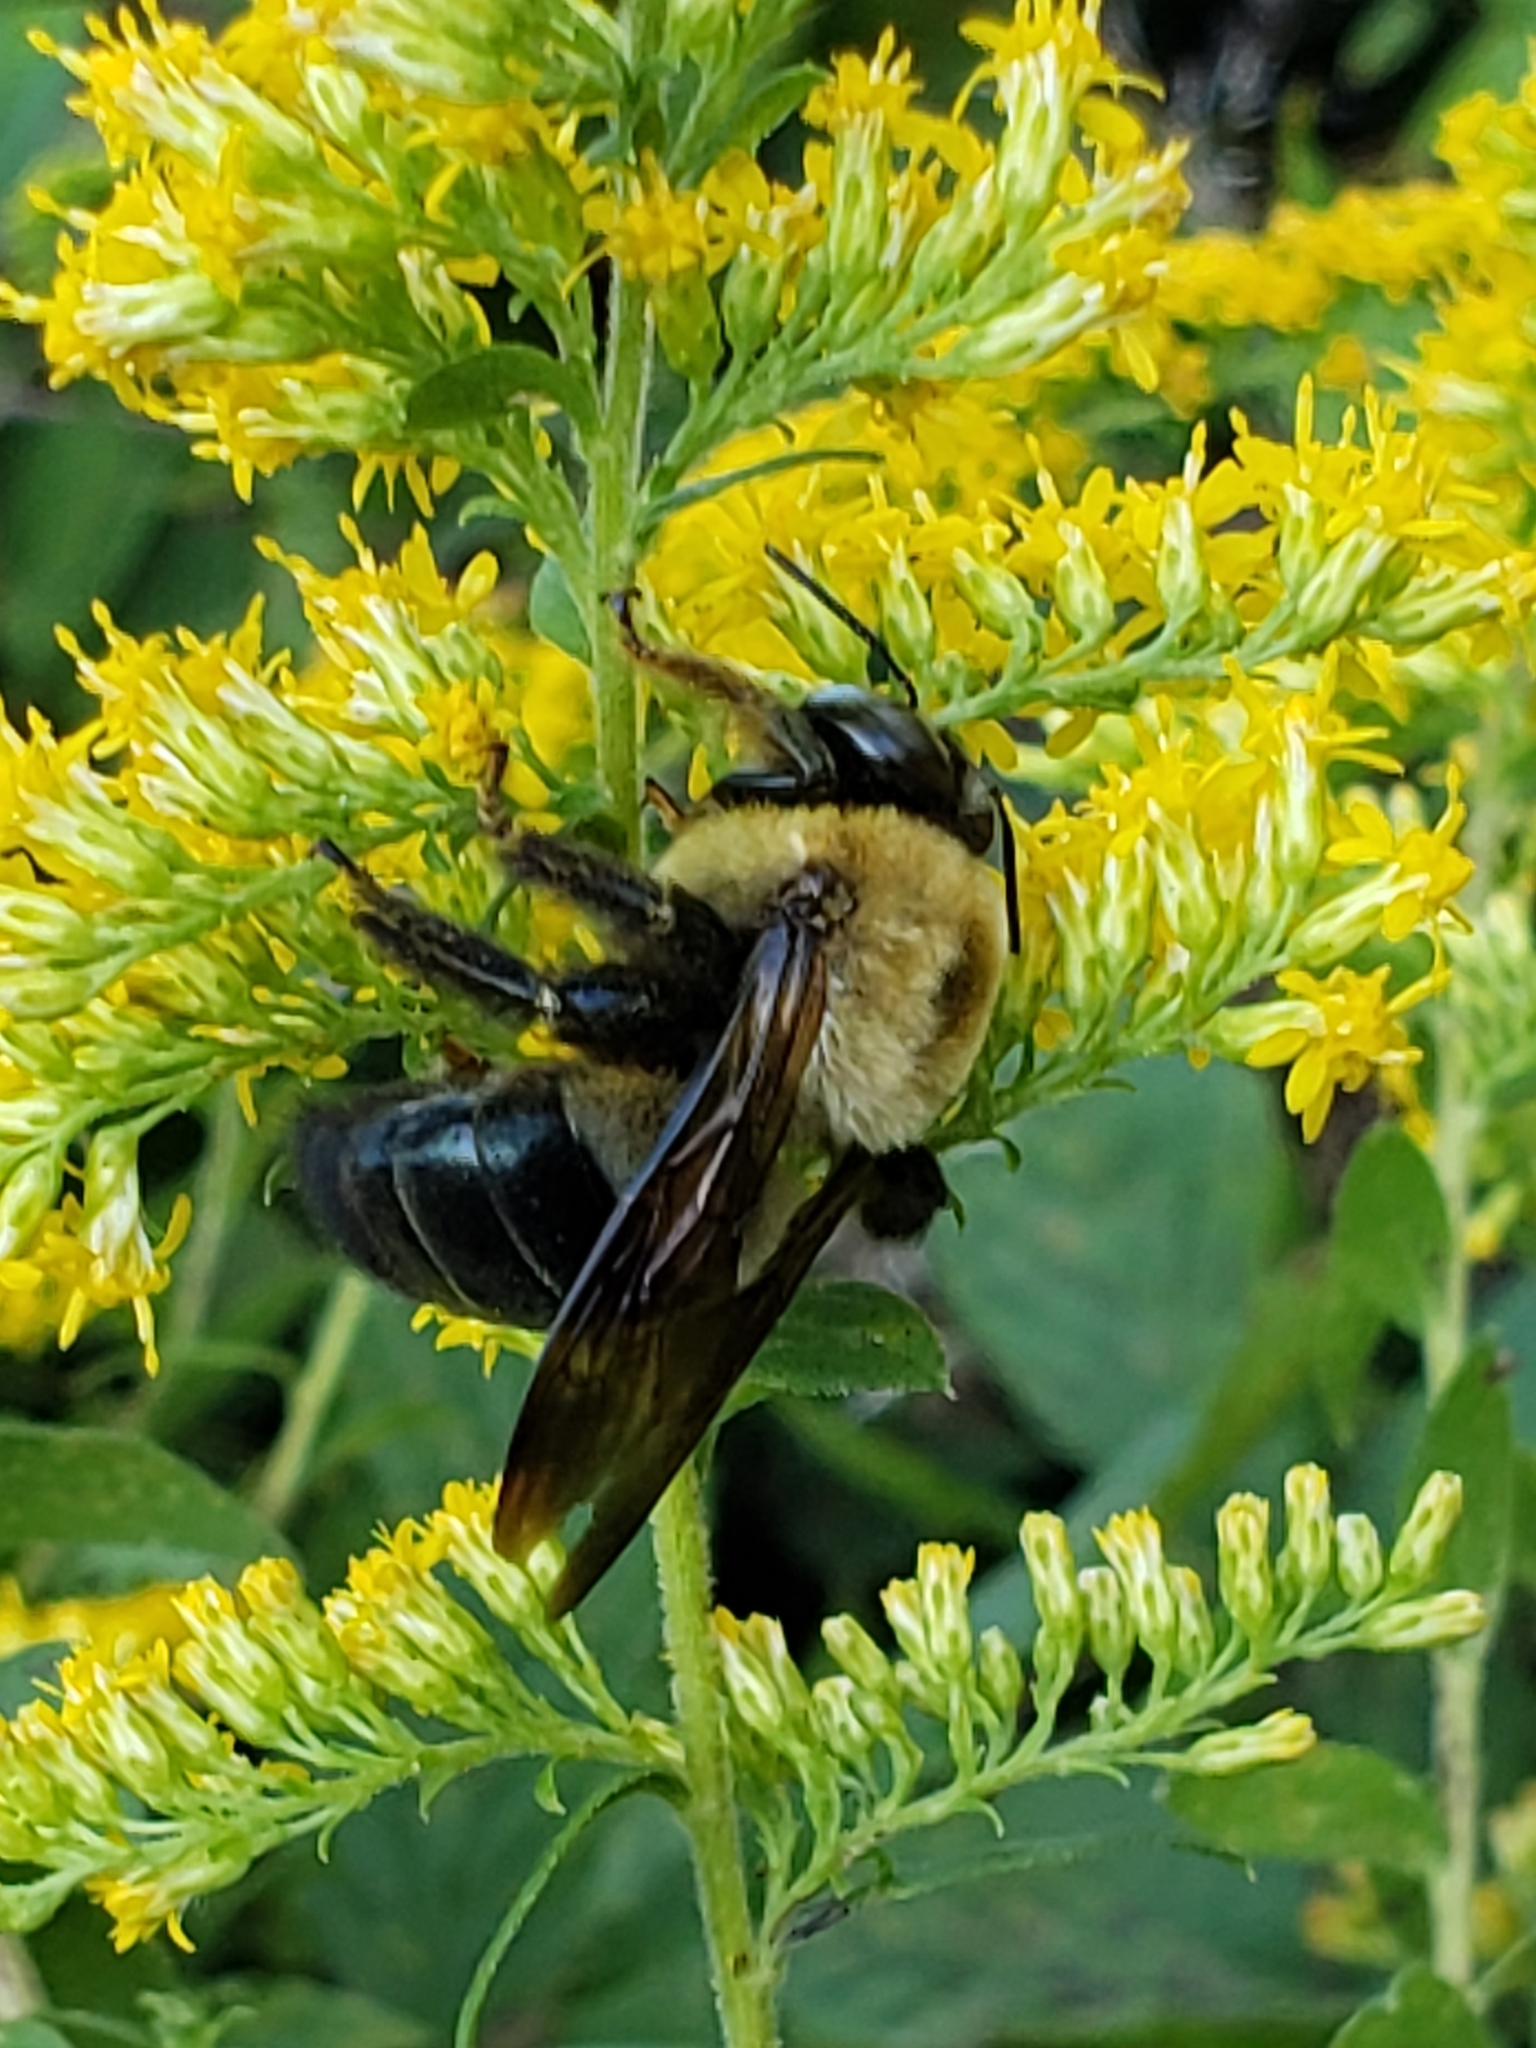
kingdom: Animalia
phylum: Arthropoda
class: Insecta
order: Hymenoptera
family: Apidae
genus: Xylocopa
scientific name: Xylocopa virginica
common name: Carpenter bee
